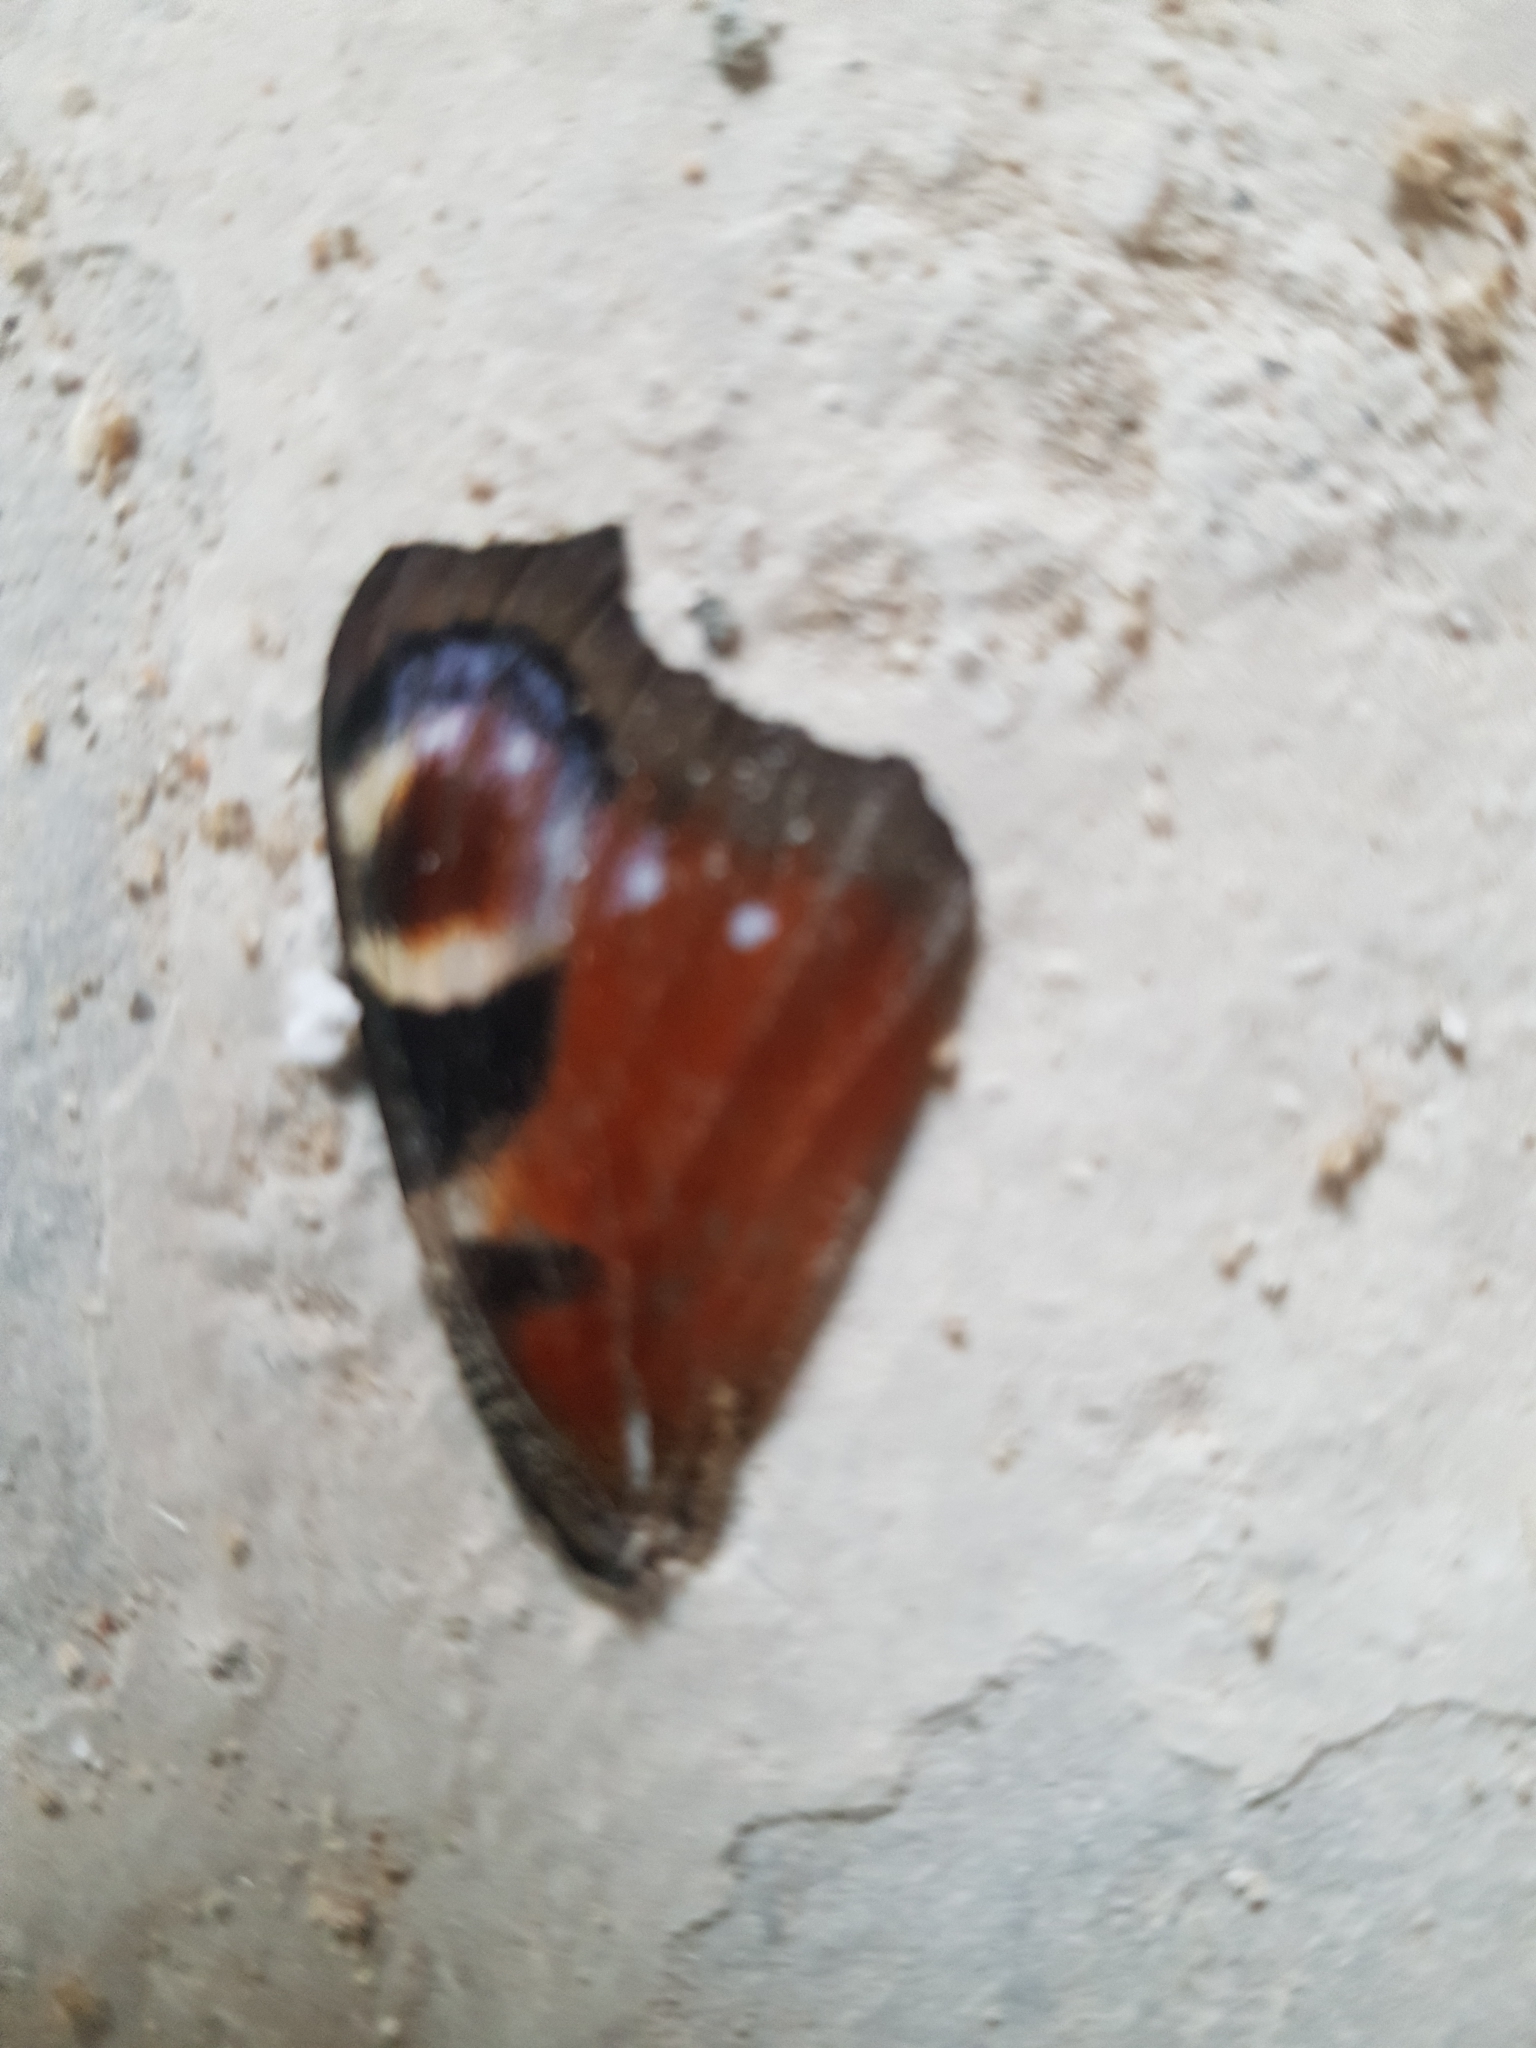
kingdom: Animalia
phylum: Arthropoda
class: Insecta
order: Lepidoptera
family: Nymphalidae
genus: Aglais
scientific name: Aglais io
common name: Peacock
